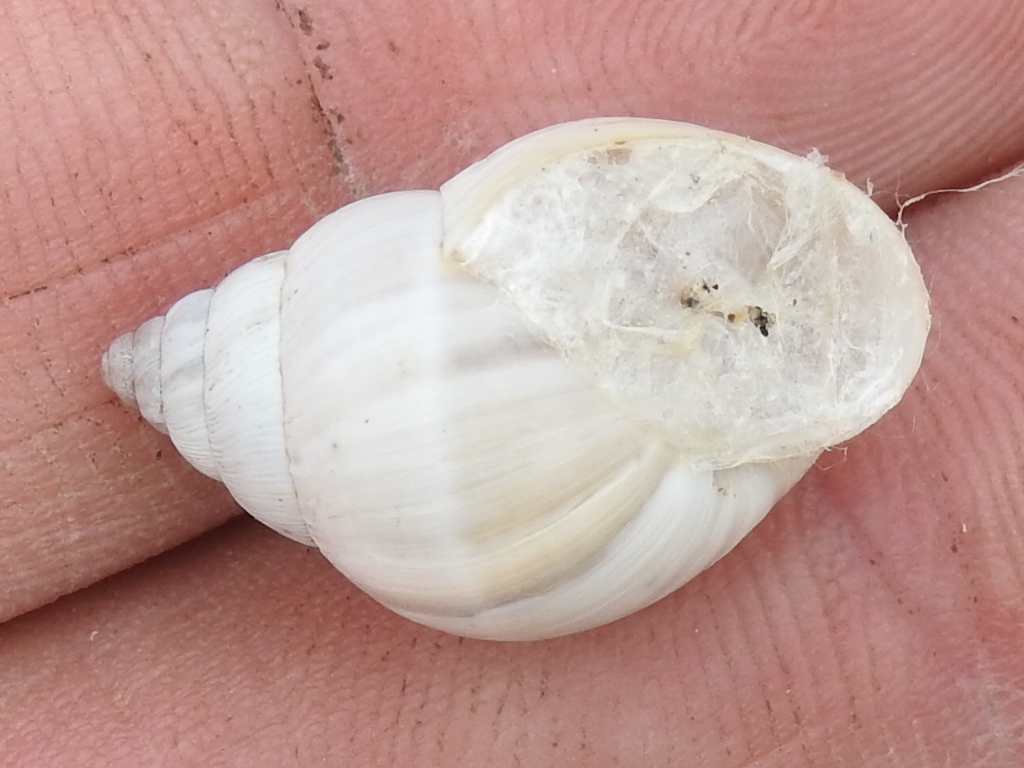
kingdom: Animalia
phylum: Mollusca
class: Gastropoda
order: Stylommatophora
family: Bulimulidae
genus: Rabdotus
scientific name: Rabdotus mooreanus
